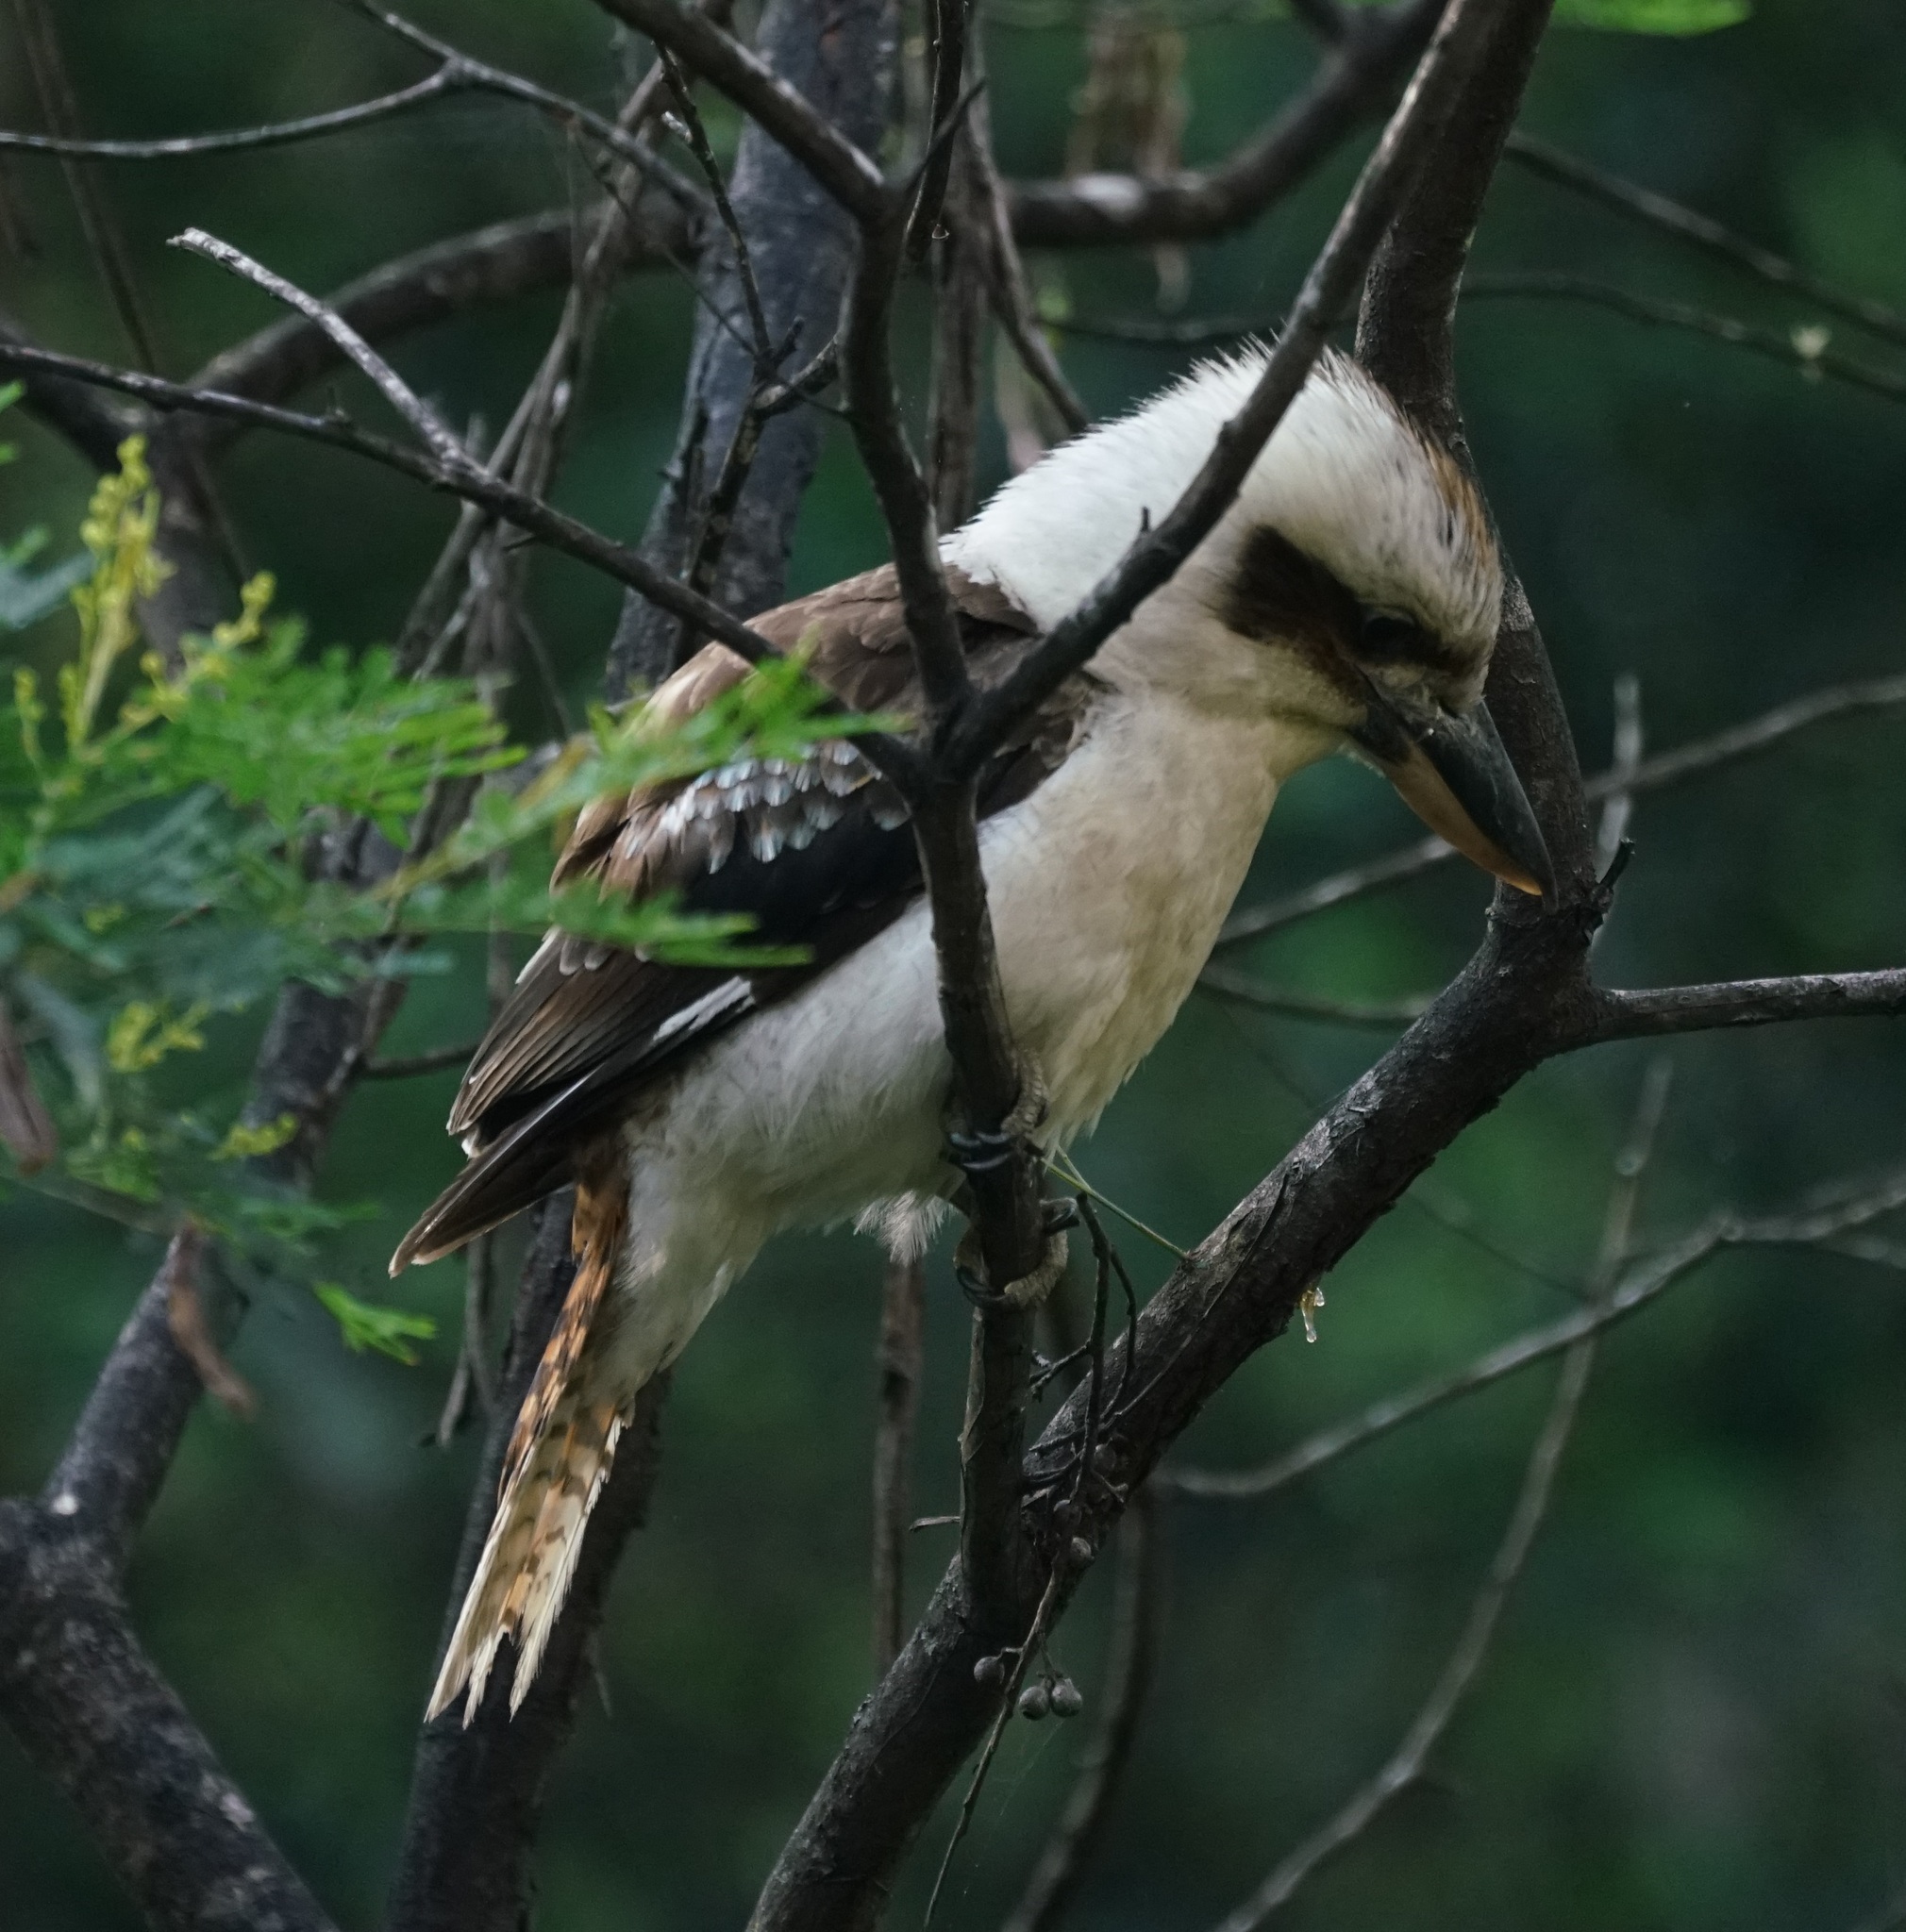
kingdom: Animalia
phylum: Chordata
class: Aves
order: Coraciiformes
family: Alcedinidae
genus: Dacelo
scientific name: Dacelo novaeguineae
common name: Laughing kookaburra
